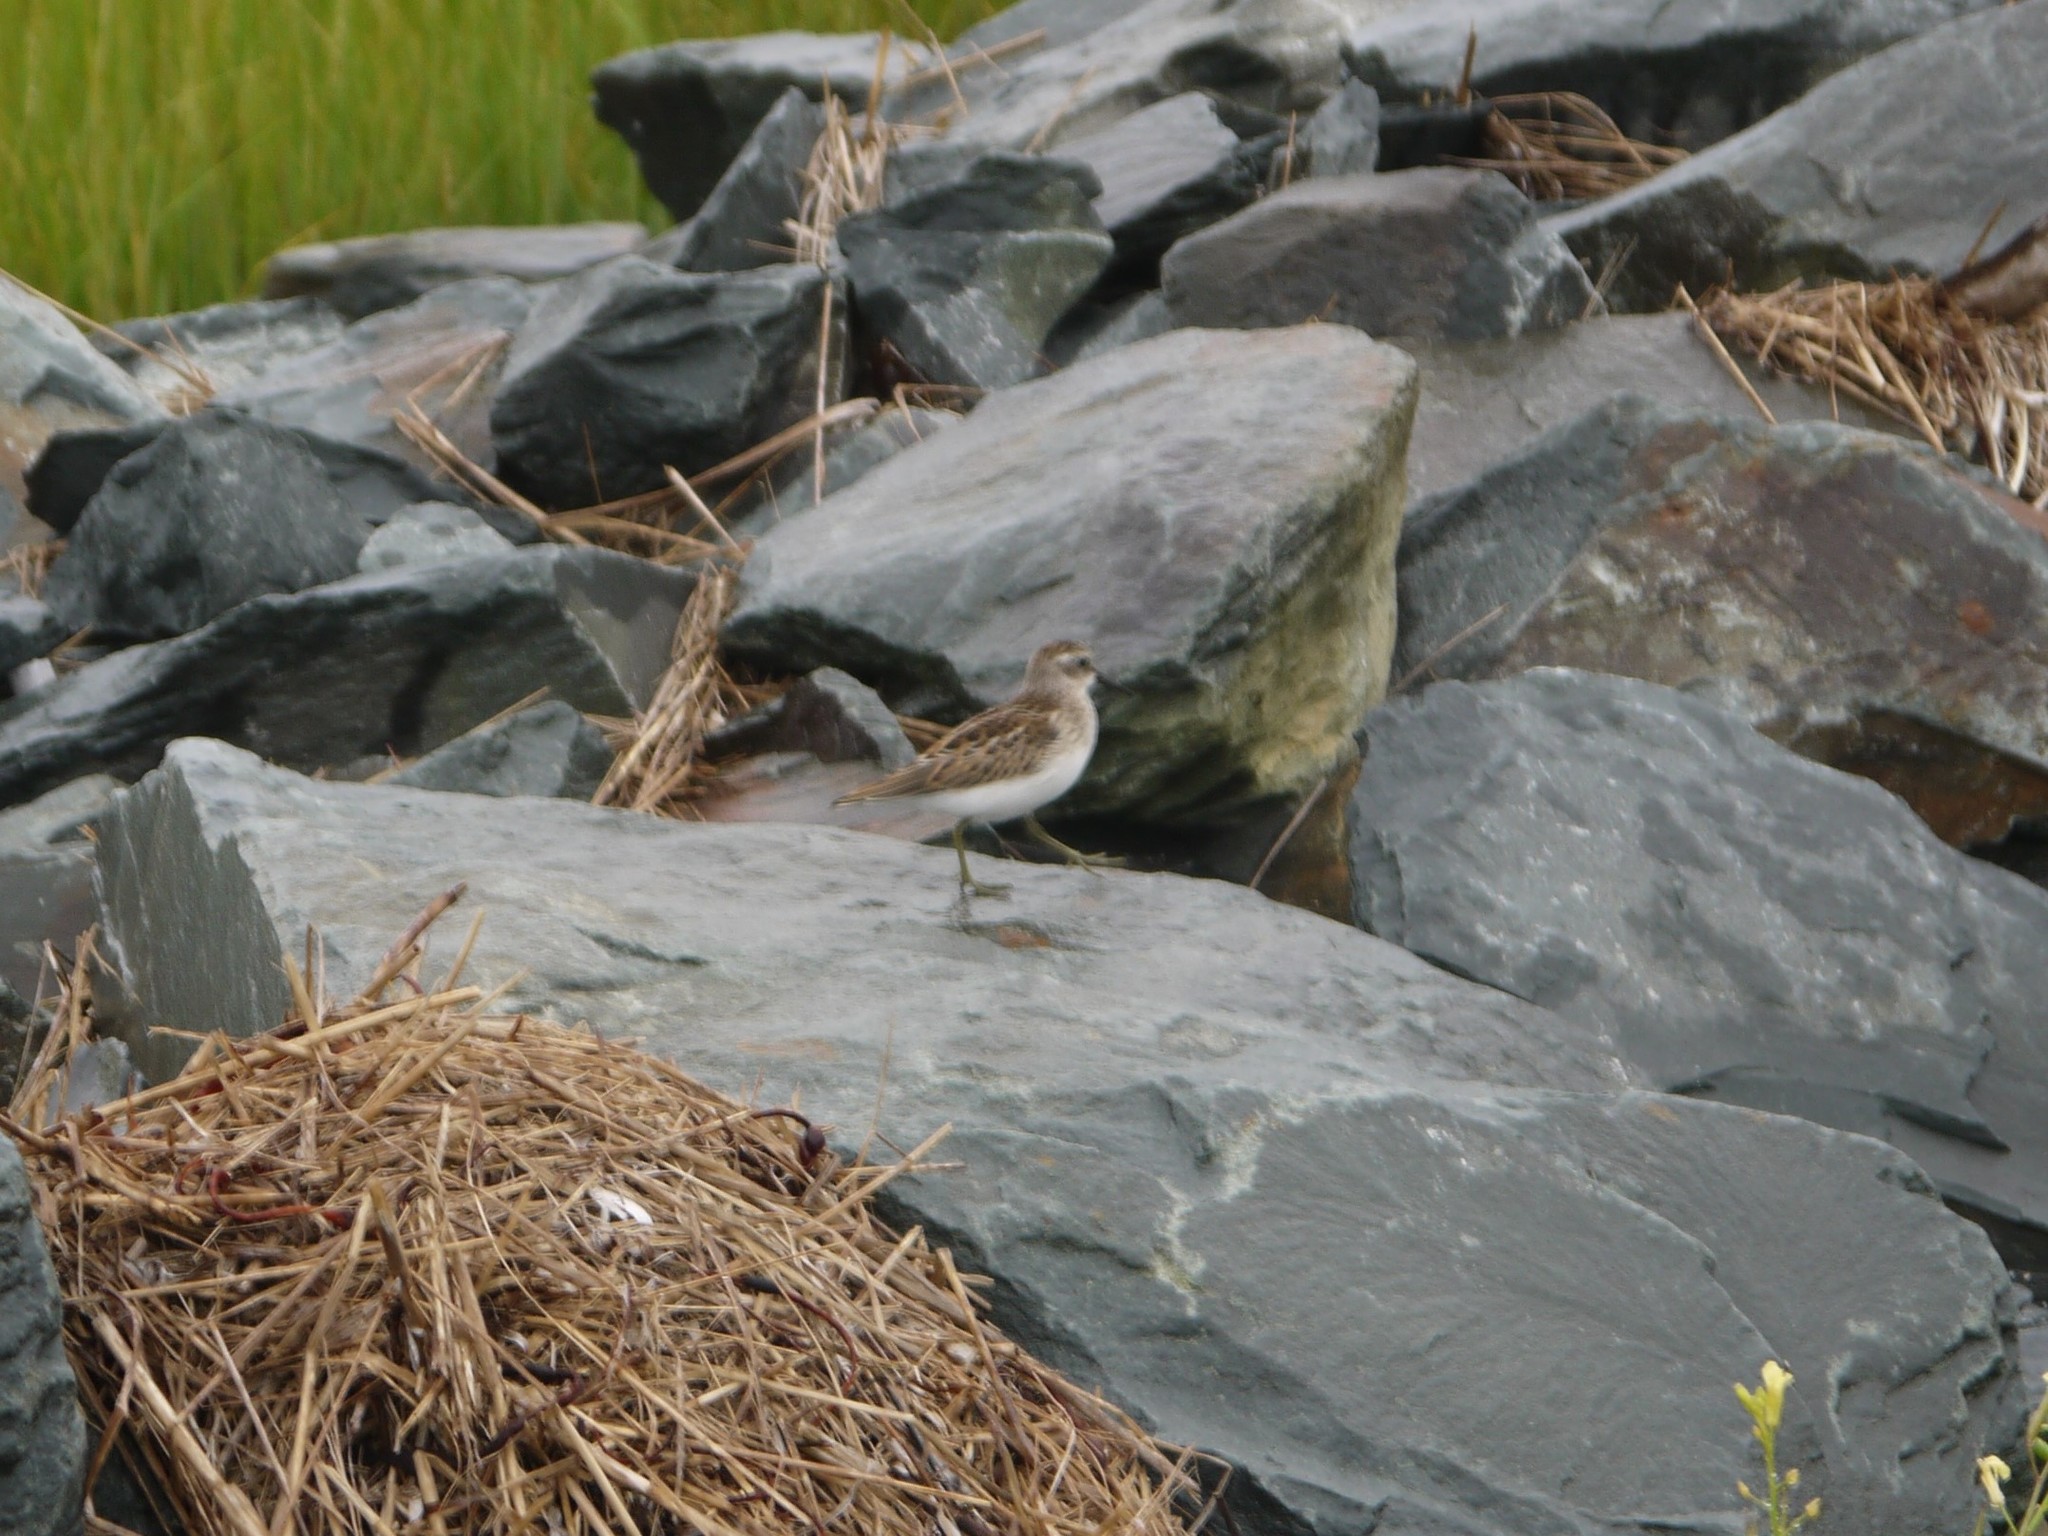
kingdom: Animalia
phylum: Chordata
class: Aves
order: Charadriiformes
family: Scolopacidae
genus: Calidris
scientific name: Calidris minutilla
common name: Least sandpiper
